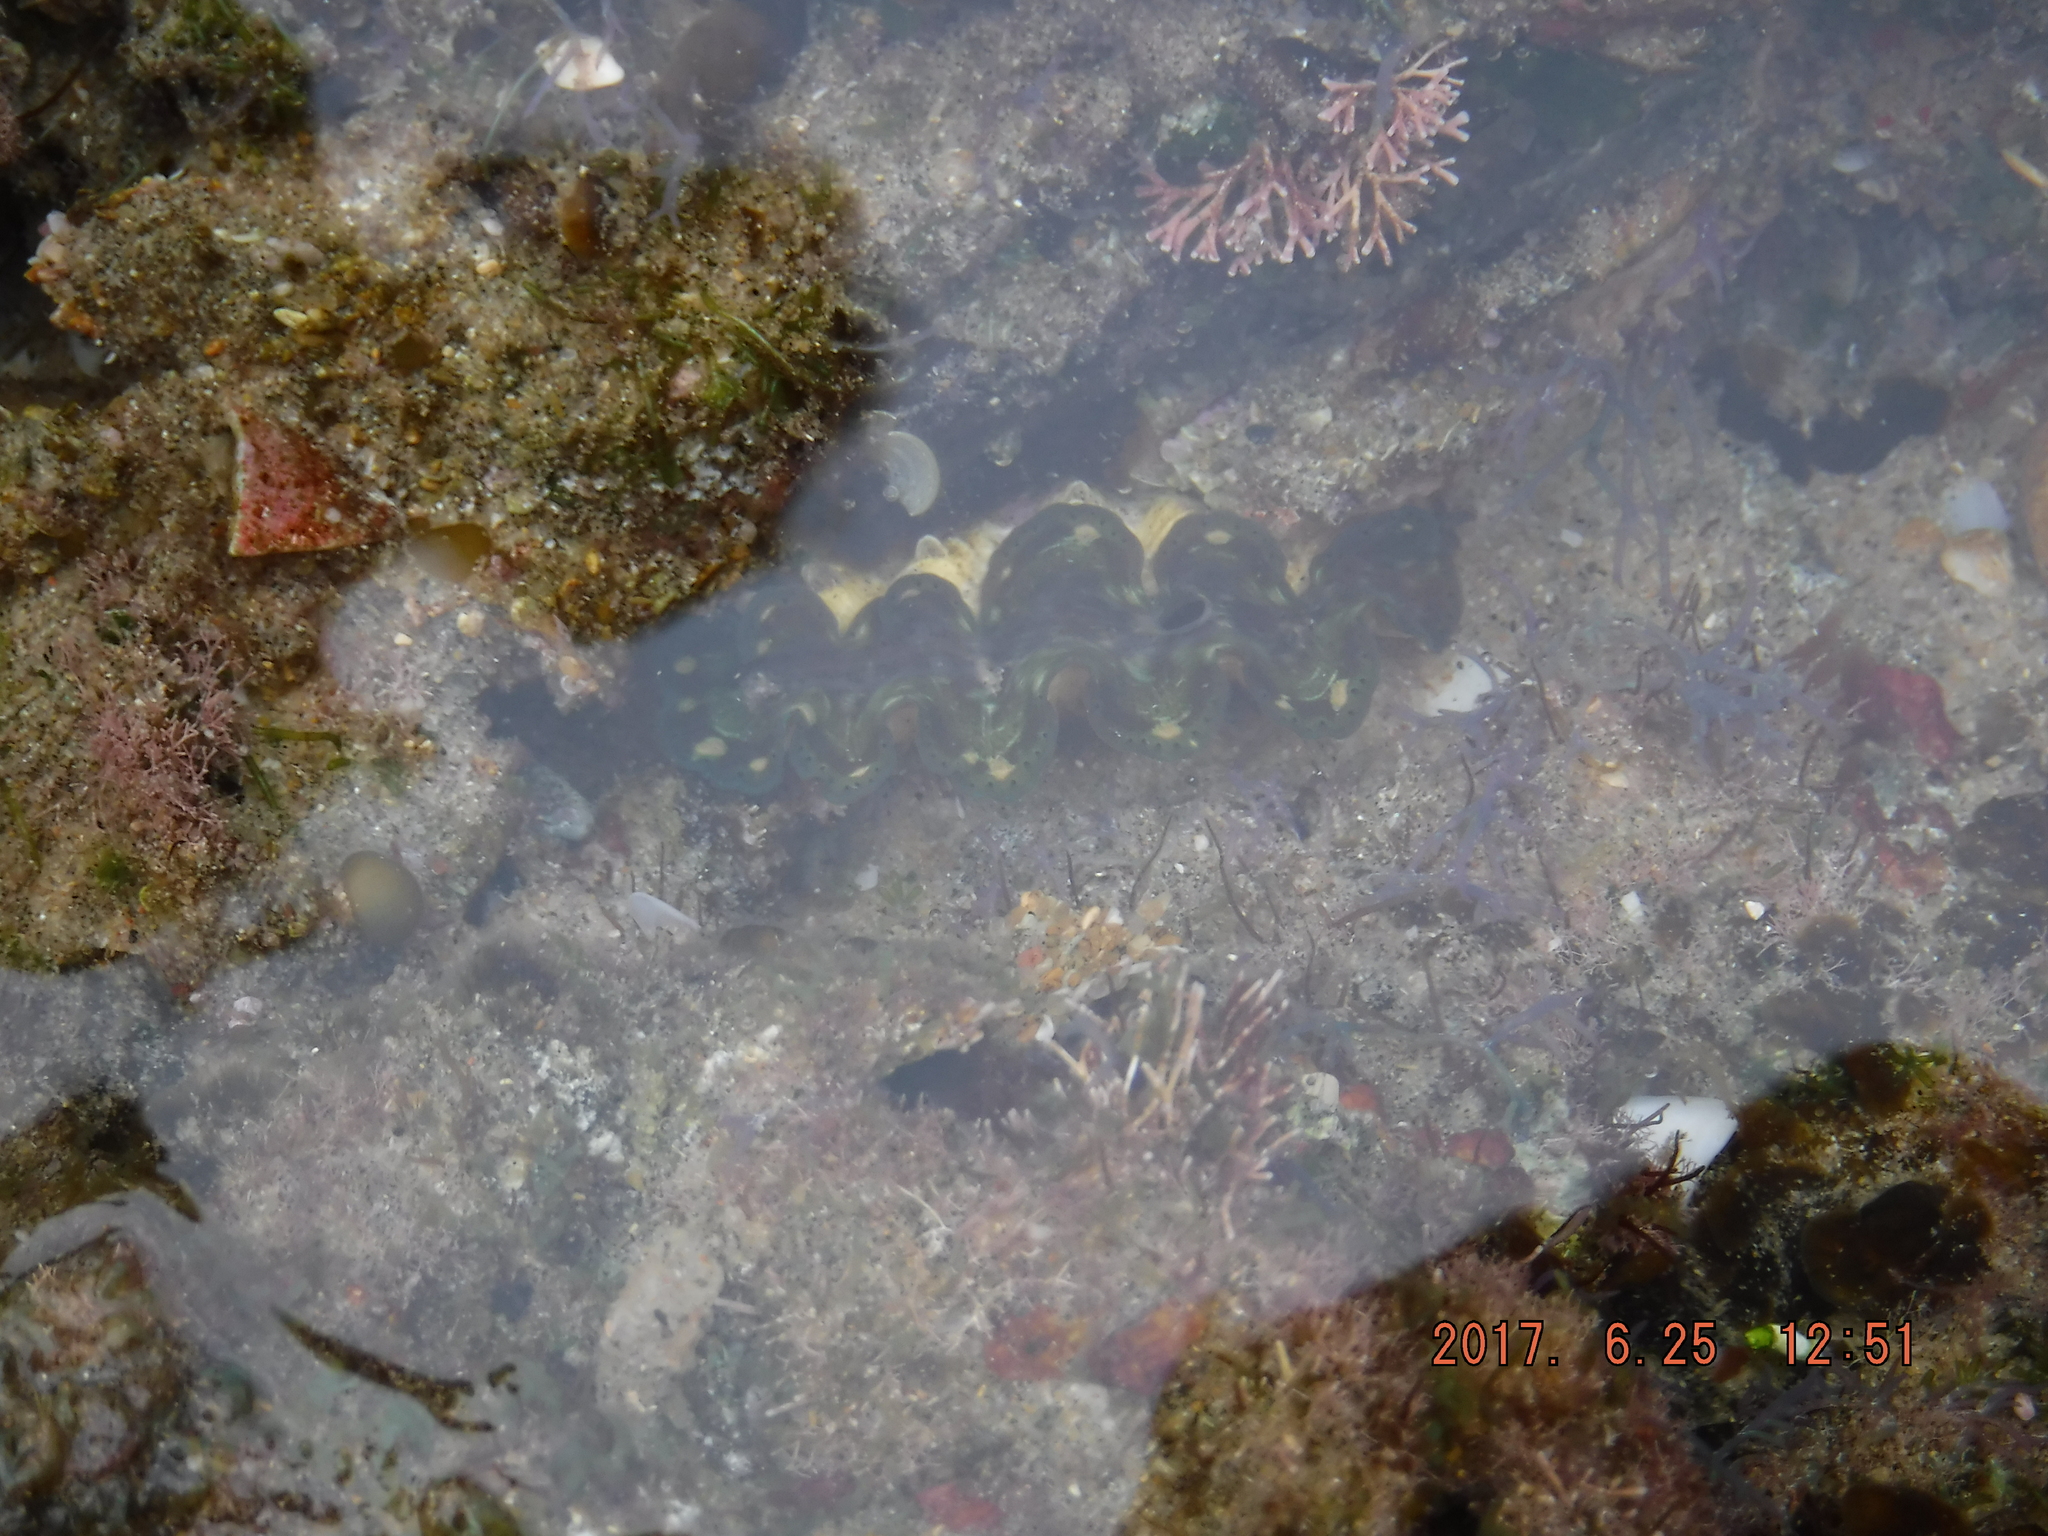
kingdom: Animalia
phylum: Mollusca
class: Bivalvia
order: Cardiida
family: Cardiidae
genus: Tridacna
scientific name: Tridacna maxima
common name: Small giant clam
